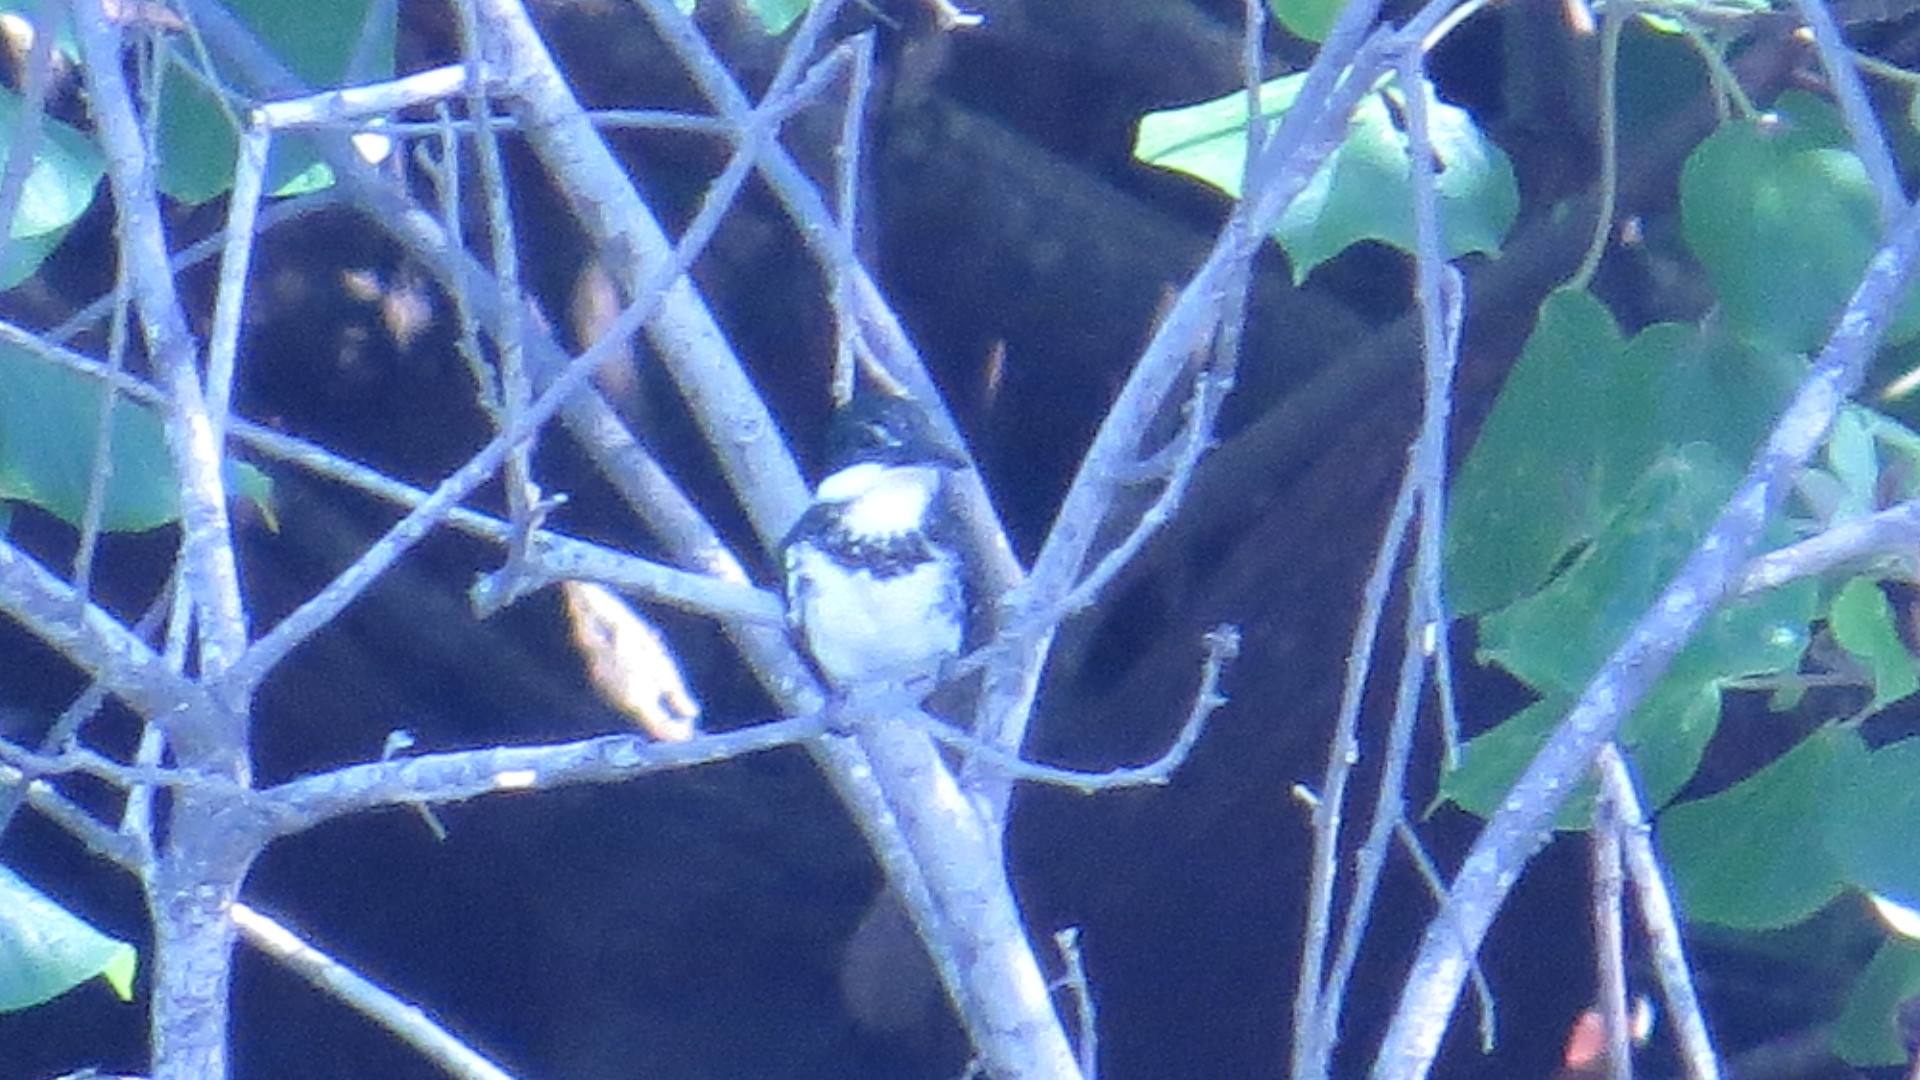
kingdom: Animalia
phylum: Chordata
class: Aves
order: Coraciiformes
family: Alcedinidae
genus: Chloroceryle
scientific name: Chloroceryle americana
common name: Green kingfisher
